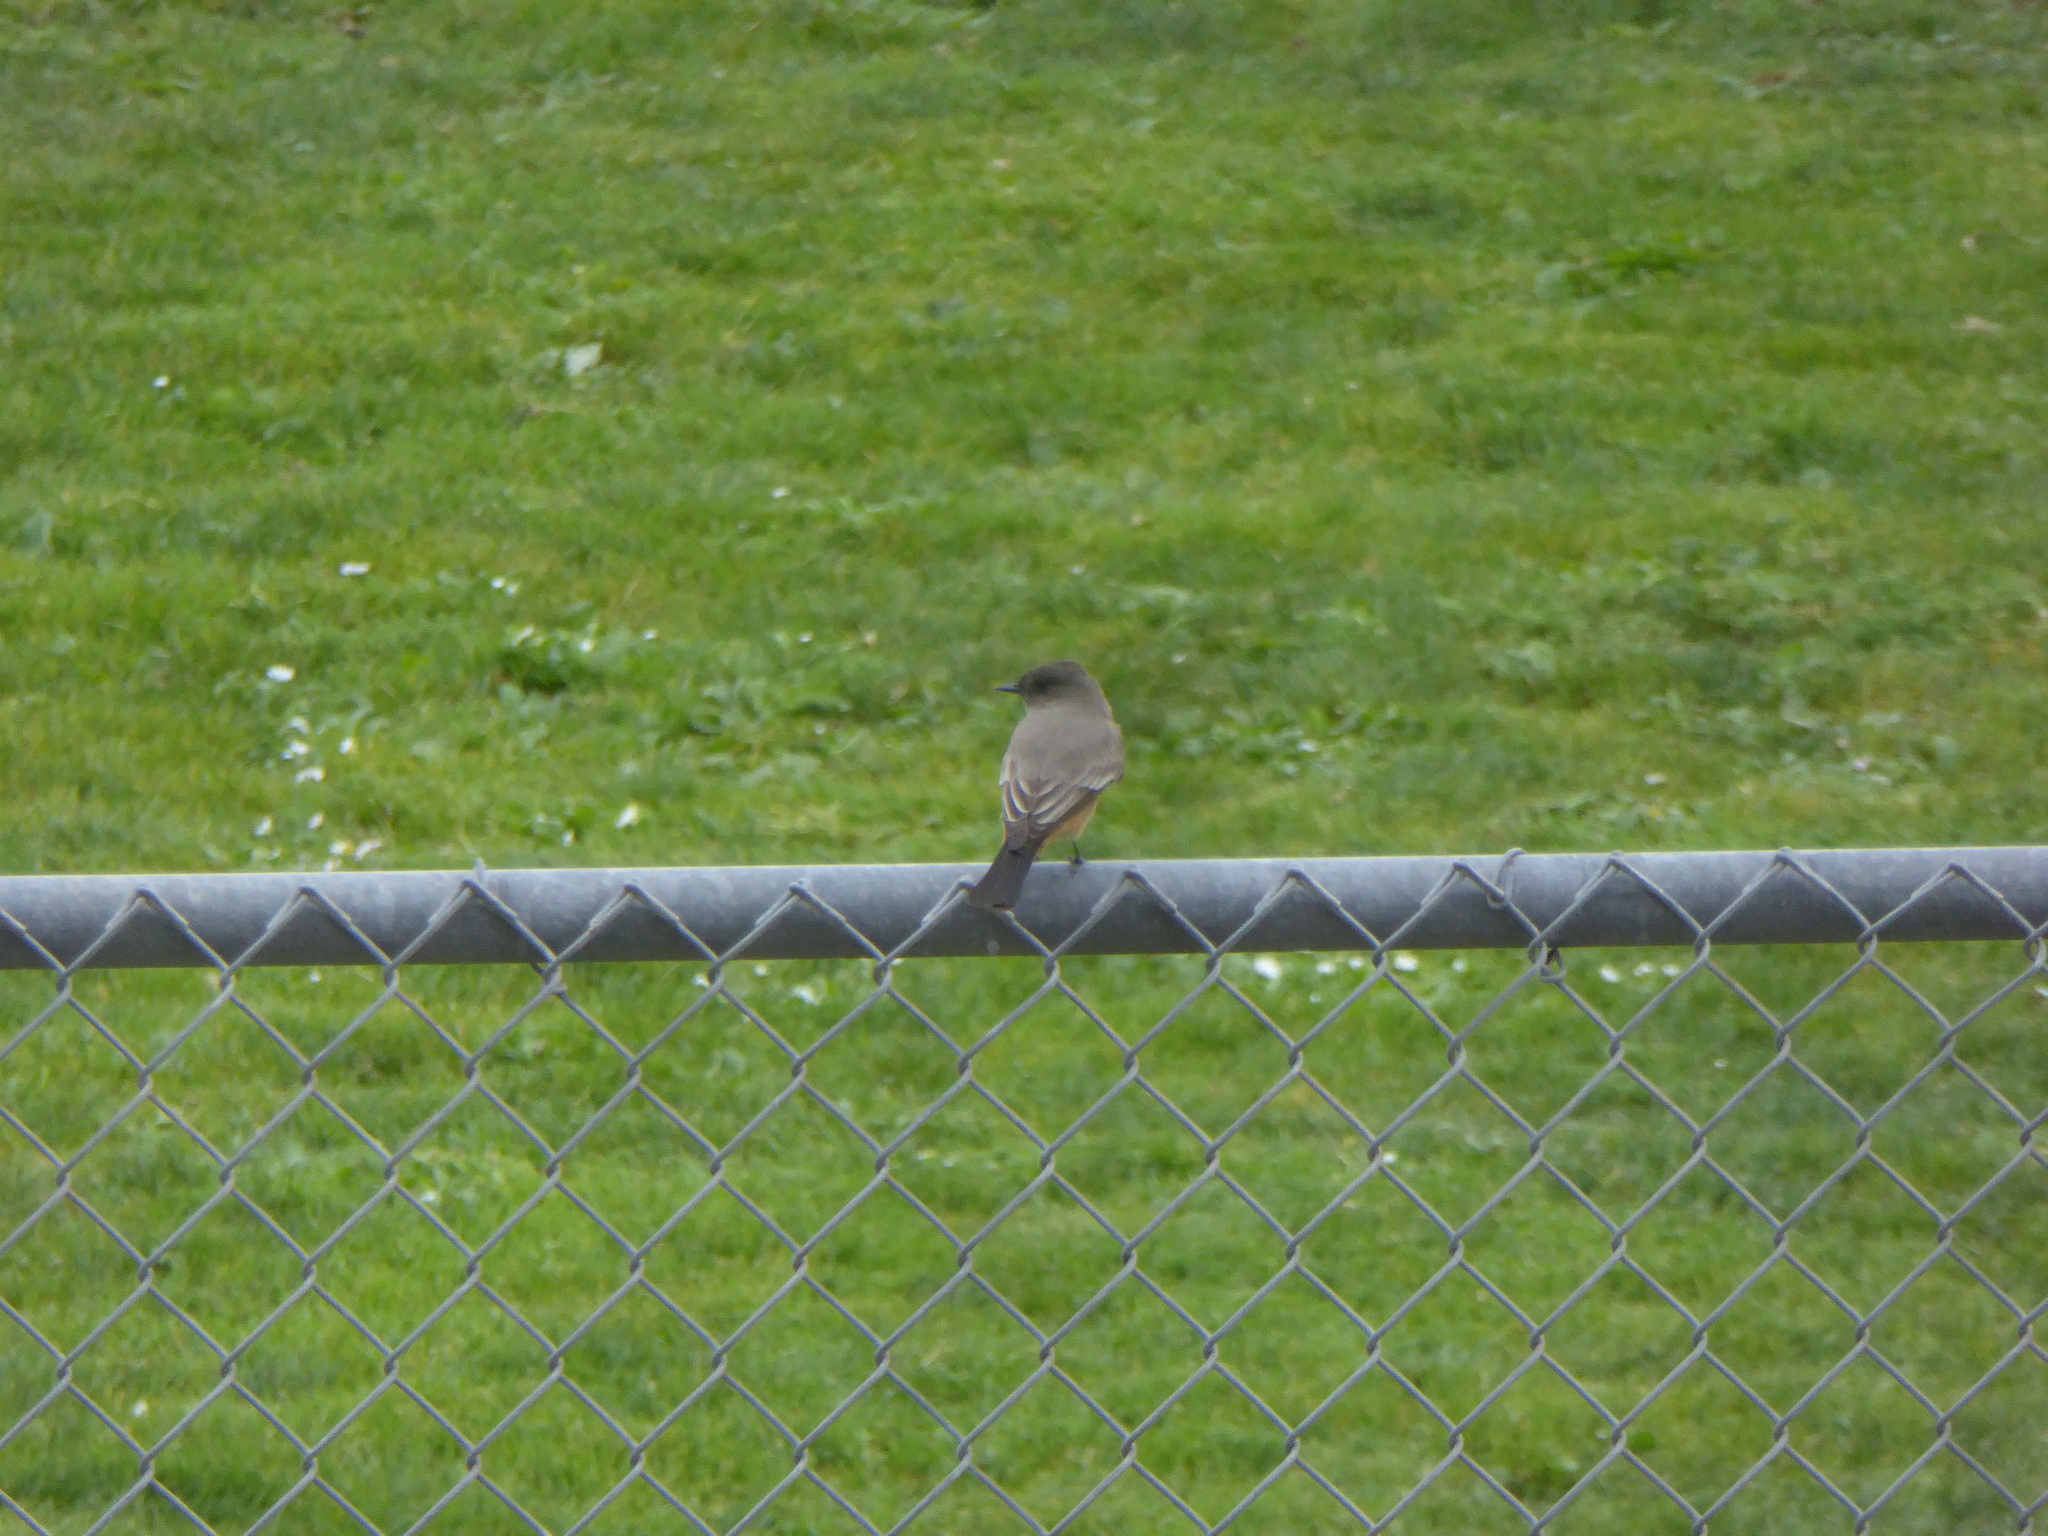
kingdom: Animalia
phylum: Chordata
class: Aves
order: Passeriformes
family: Tyrannidae
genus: Sayornis
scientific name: Sayornis saya
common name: Say's phoebe
